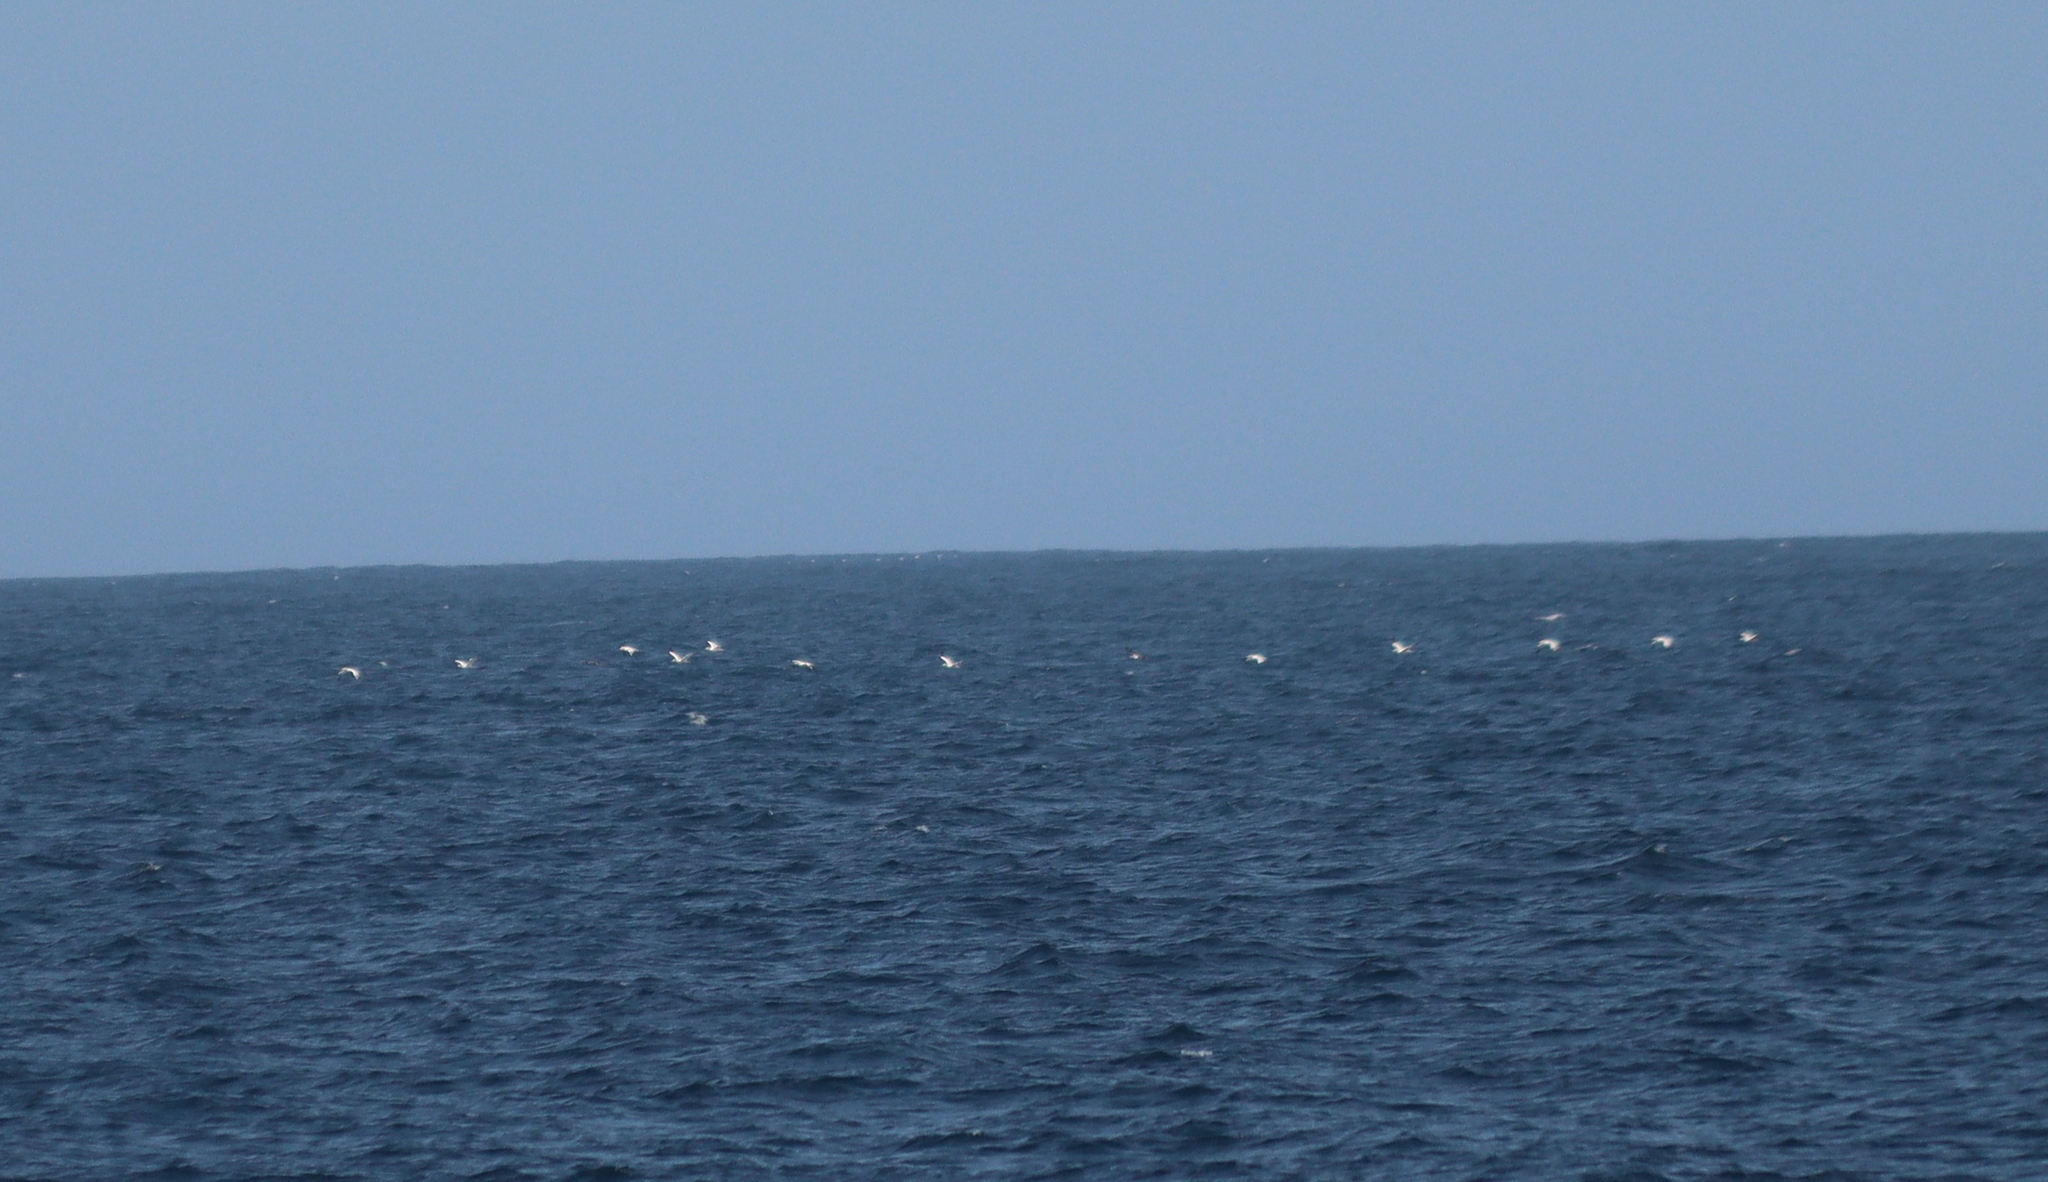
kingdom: Animalia
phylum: Chordata
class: Aves
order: Suliformes
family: Sulidae
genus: Morus
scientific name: Morus bassanus
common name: Northern gannet
